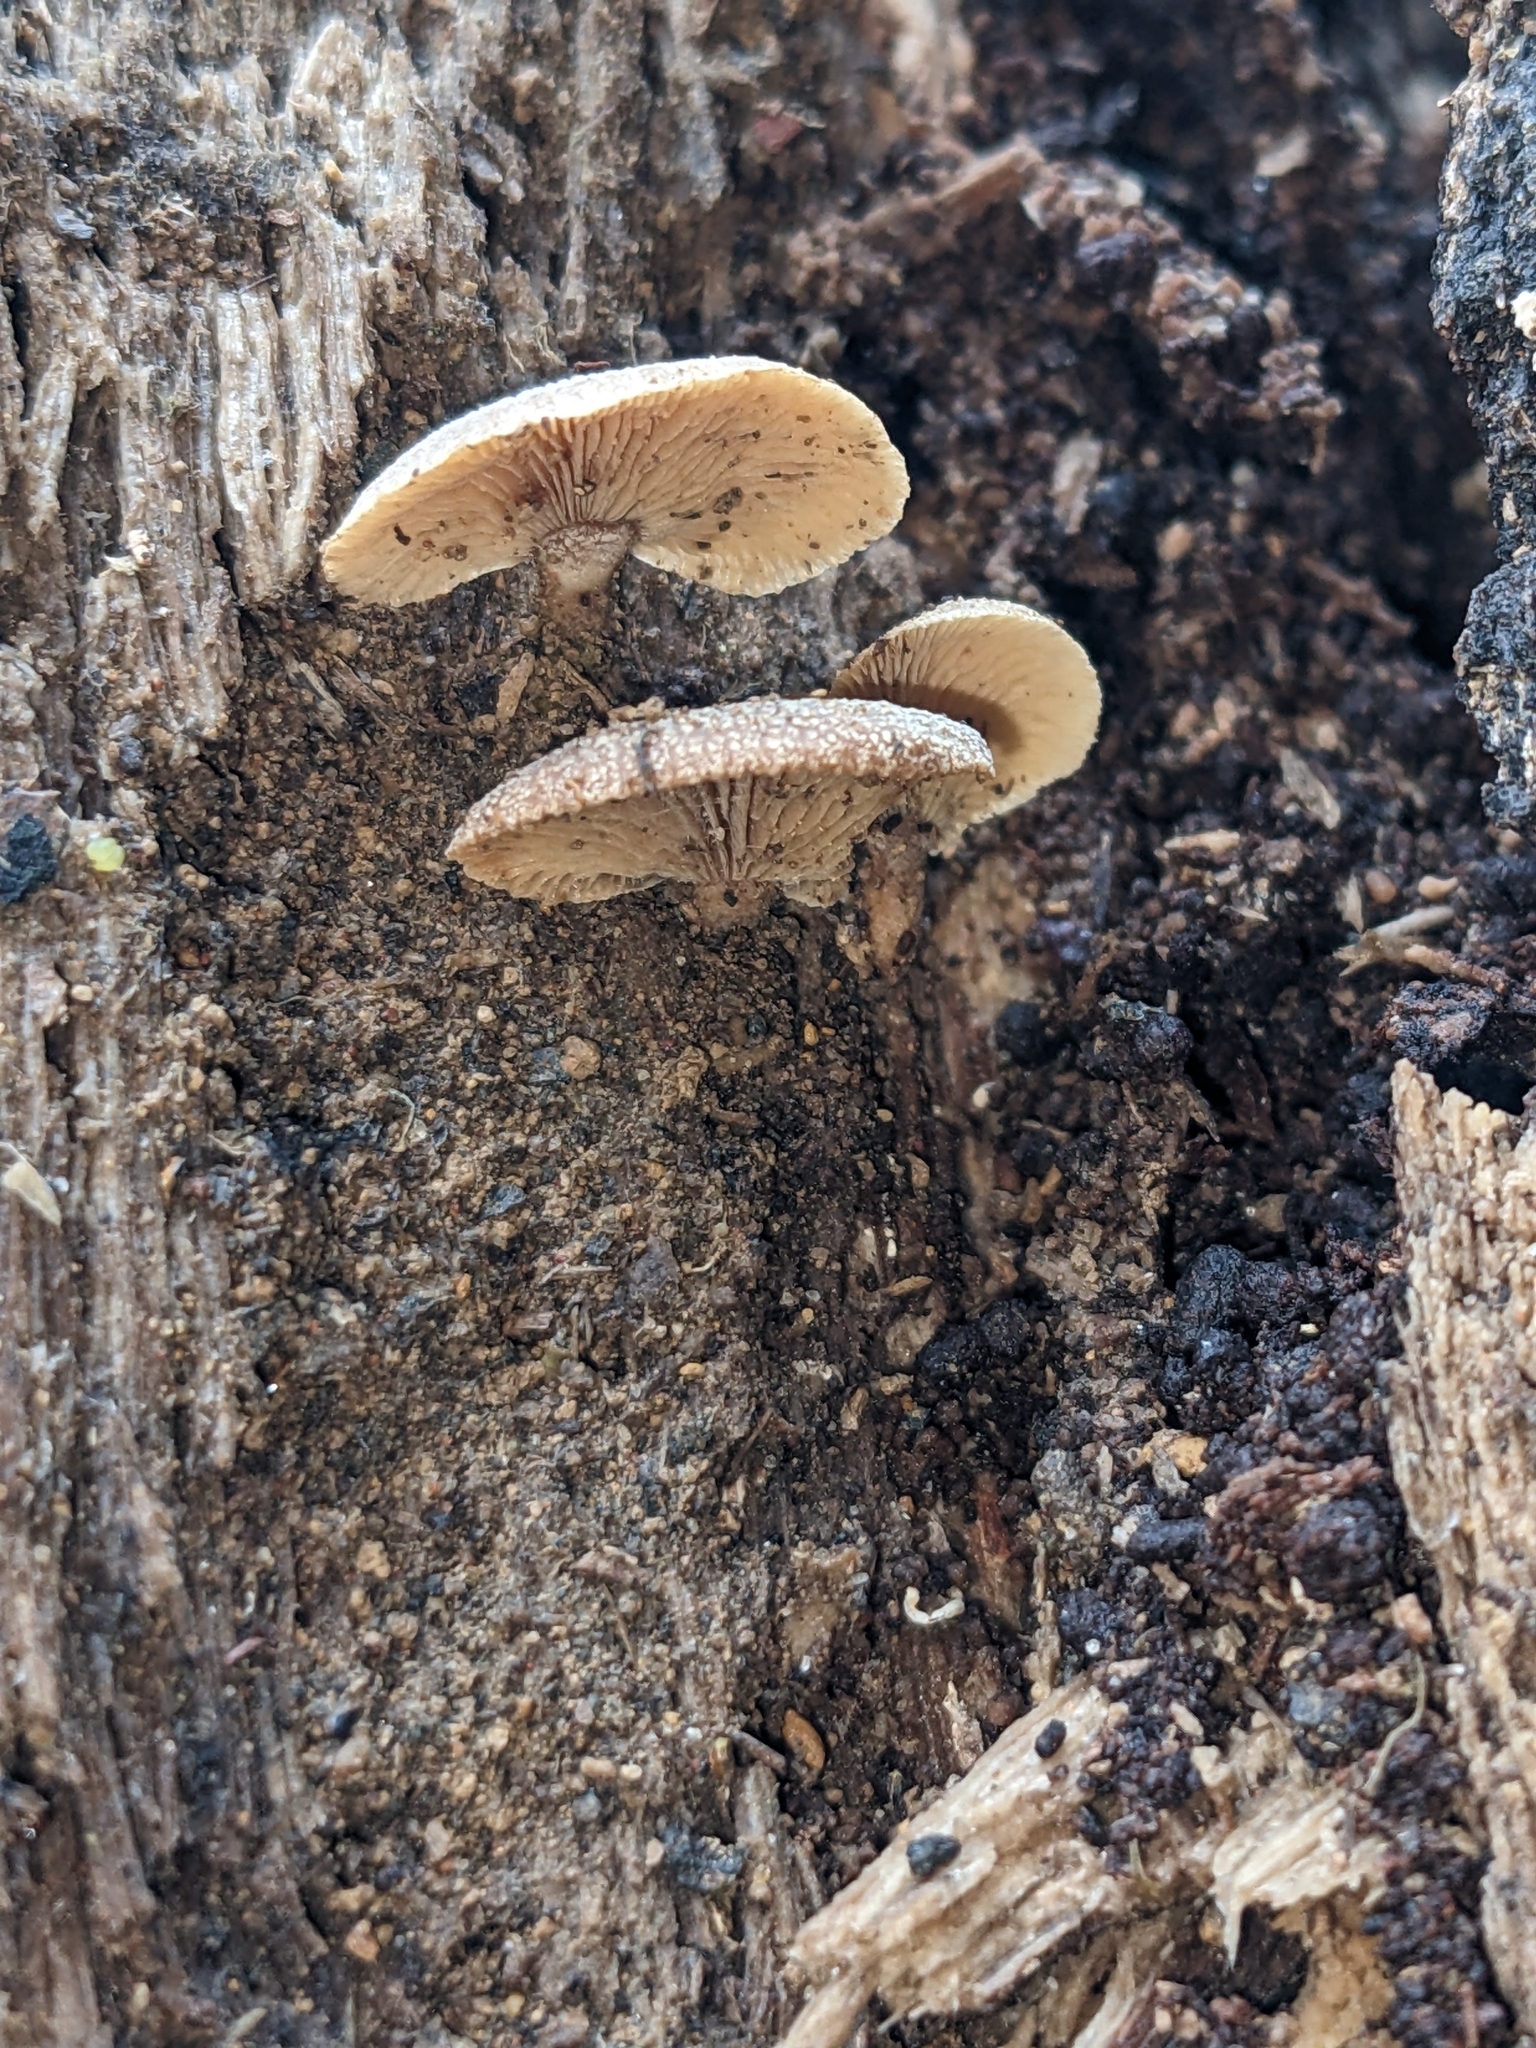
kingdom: Fungi
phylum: Basidiomycota
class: Agaricomycetes
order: Agaricales
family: Mycenaceae
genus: Panellus
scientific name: Panellus stipticus
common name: Bitter oysterling
